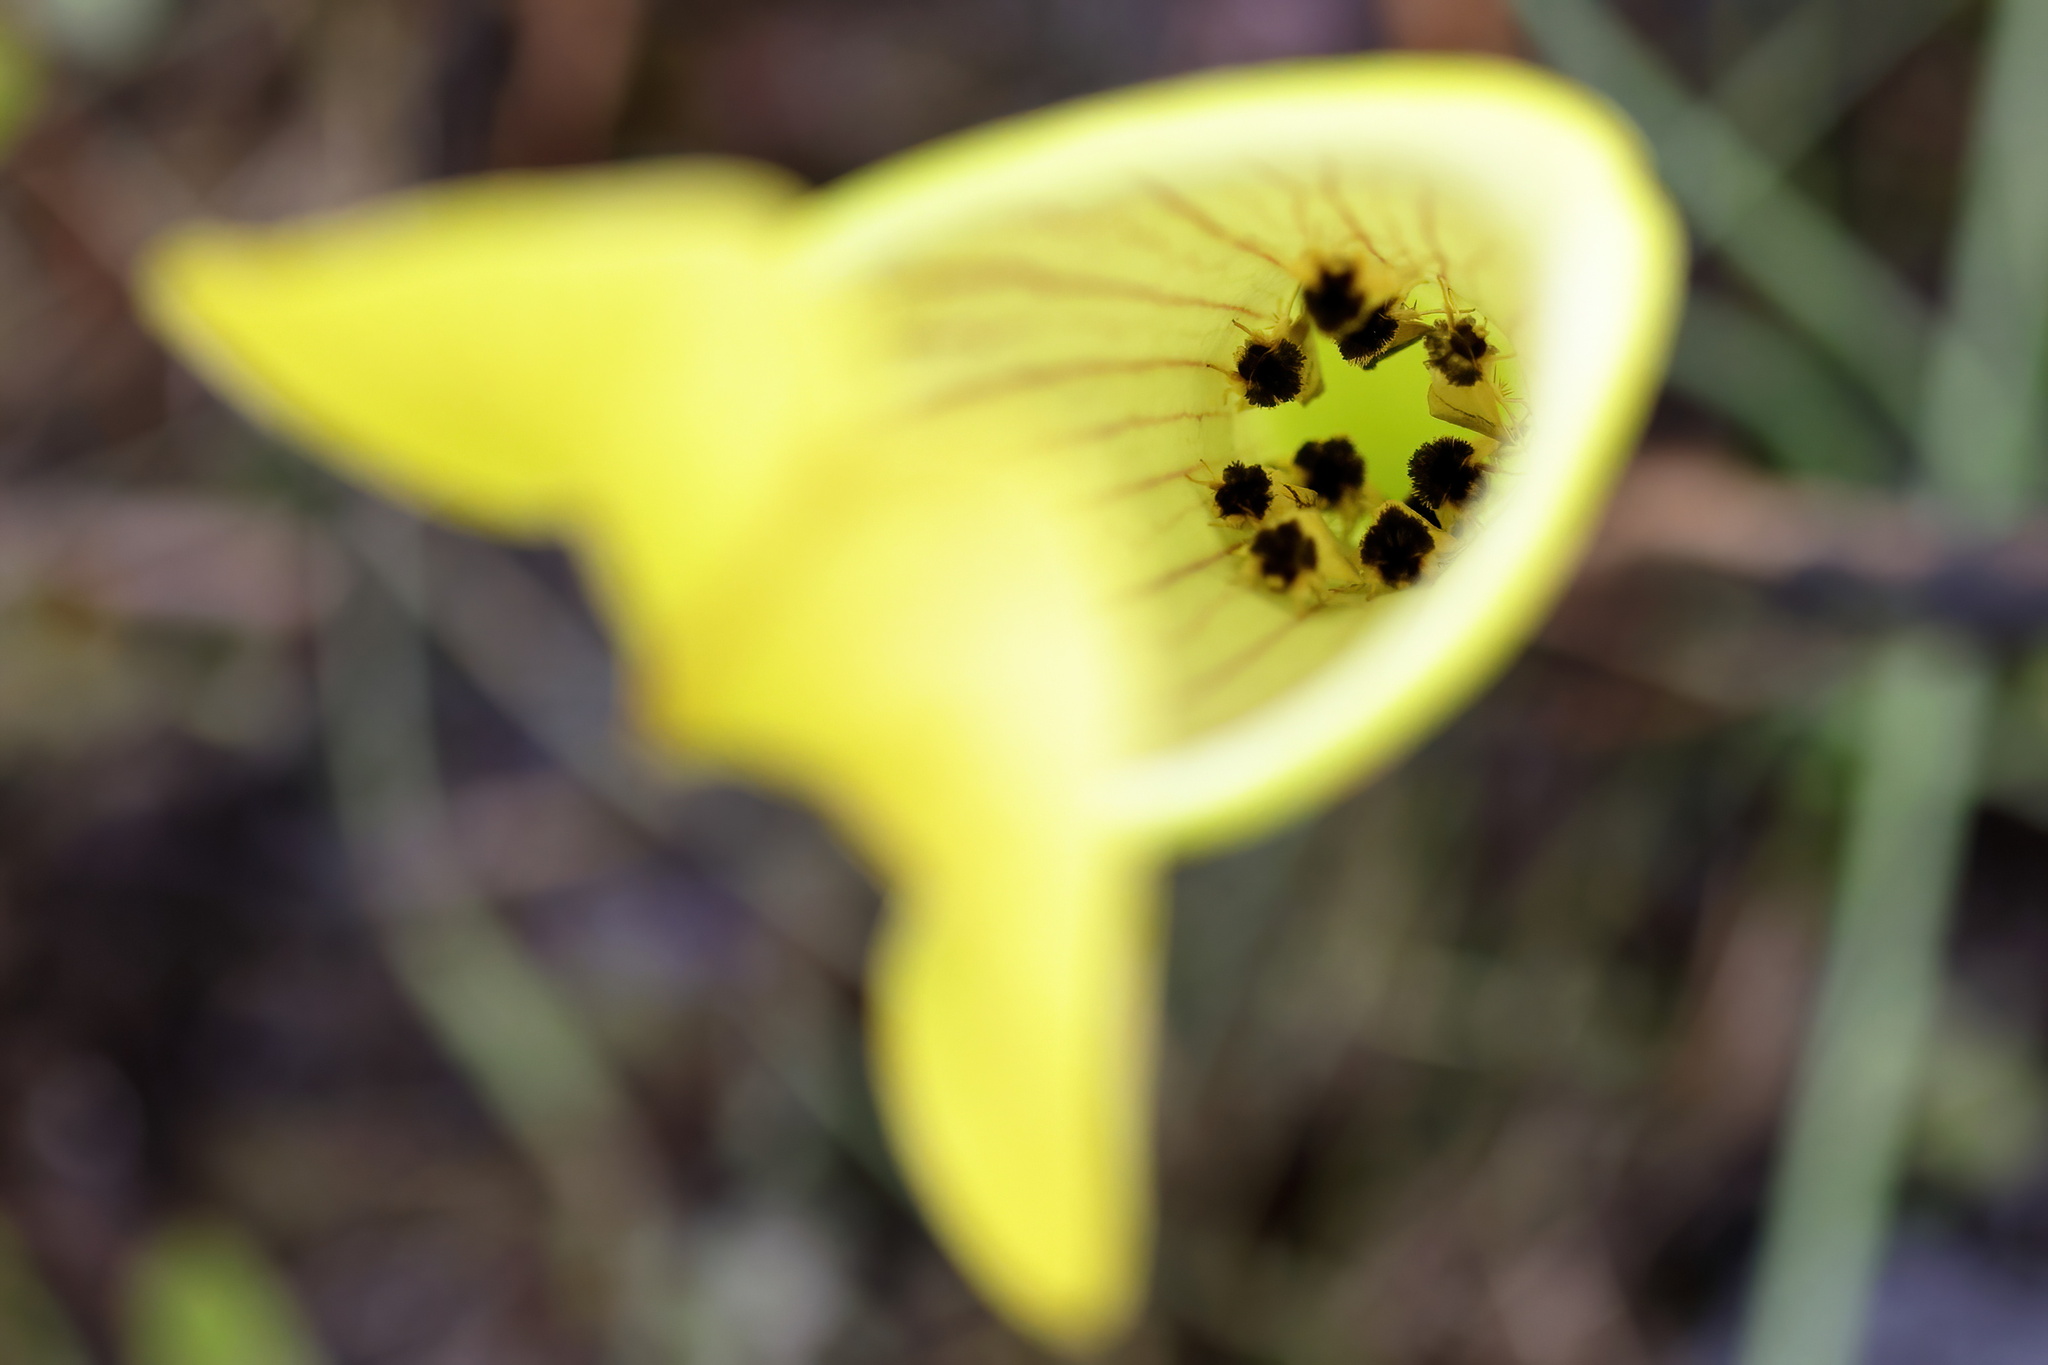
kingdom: Animalia
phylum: Arthropoda
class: Insecta
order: Lepidoptera
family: Noctuidae
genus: Exyra
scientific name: Exyra semicrocea
